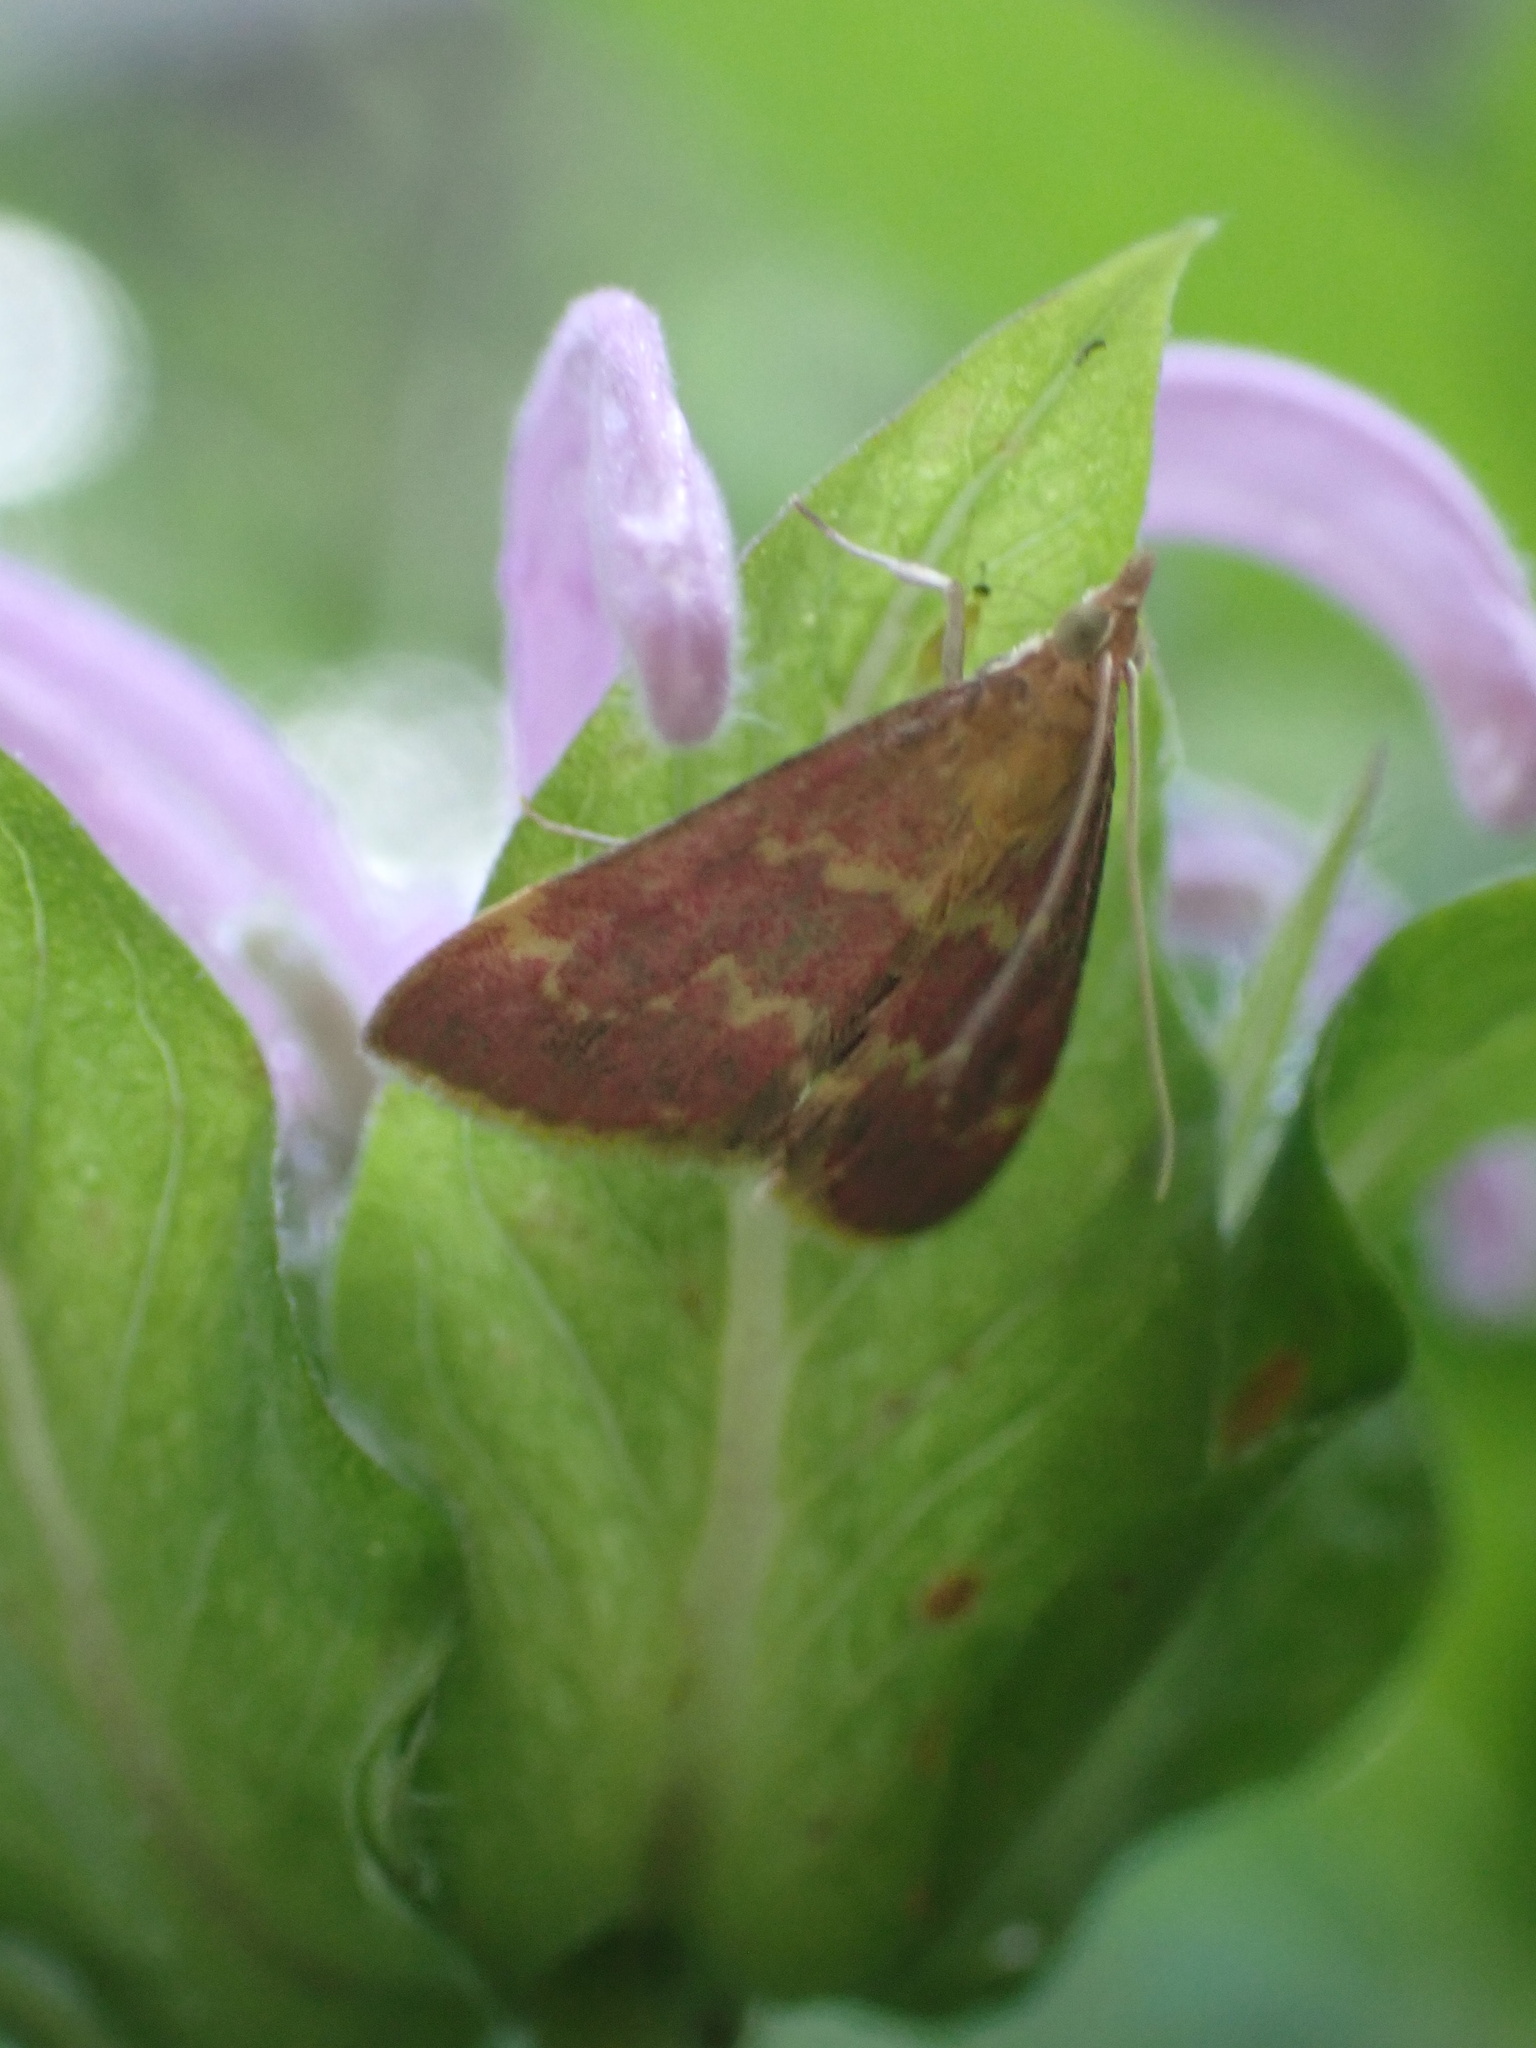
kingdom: Animalia
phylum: Arthropoda
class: Insecta
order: Lepidoptera
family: Crambidae
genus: Pyrausta
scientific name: Pyrausta signatalis
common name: Raspberry pyrausta moth
